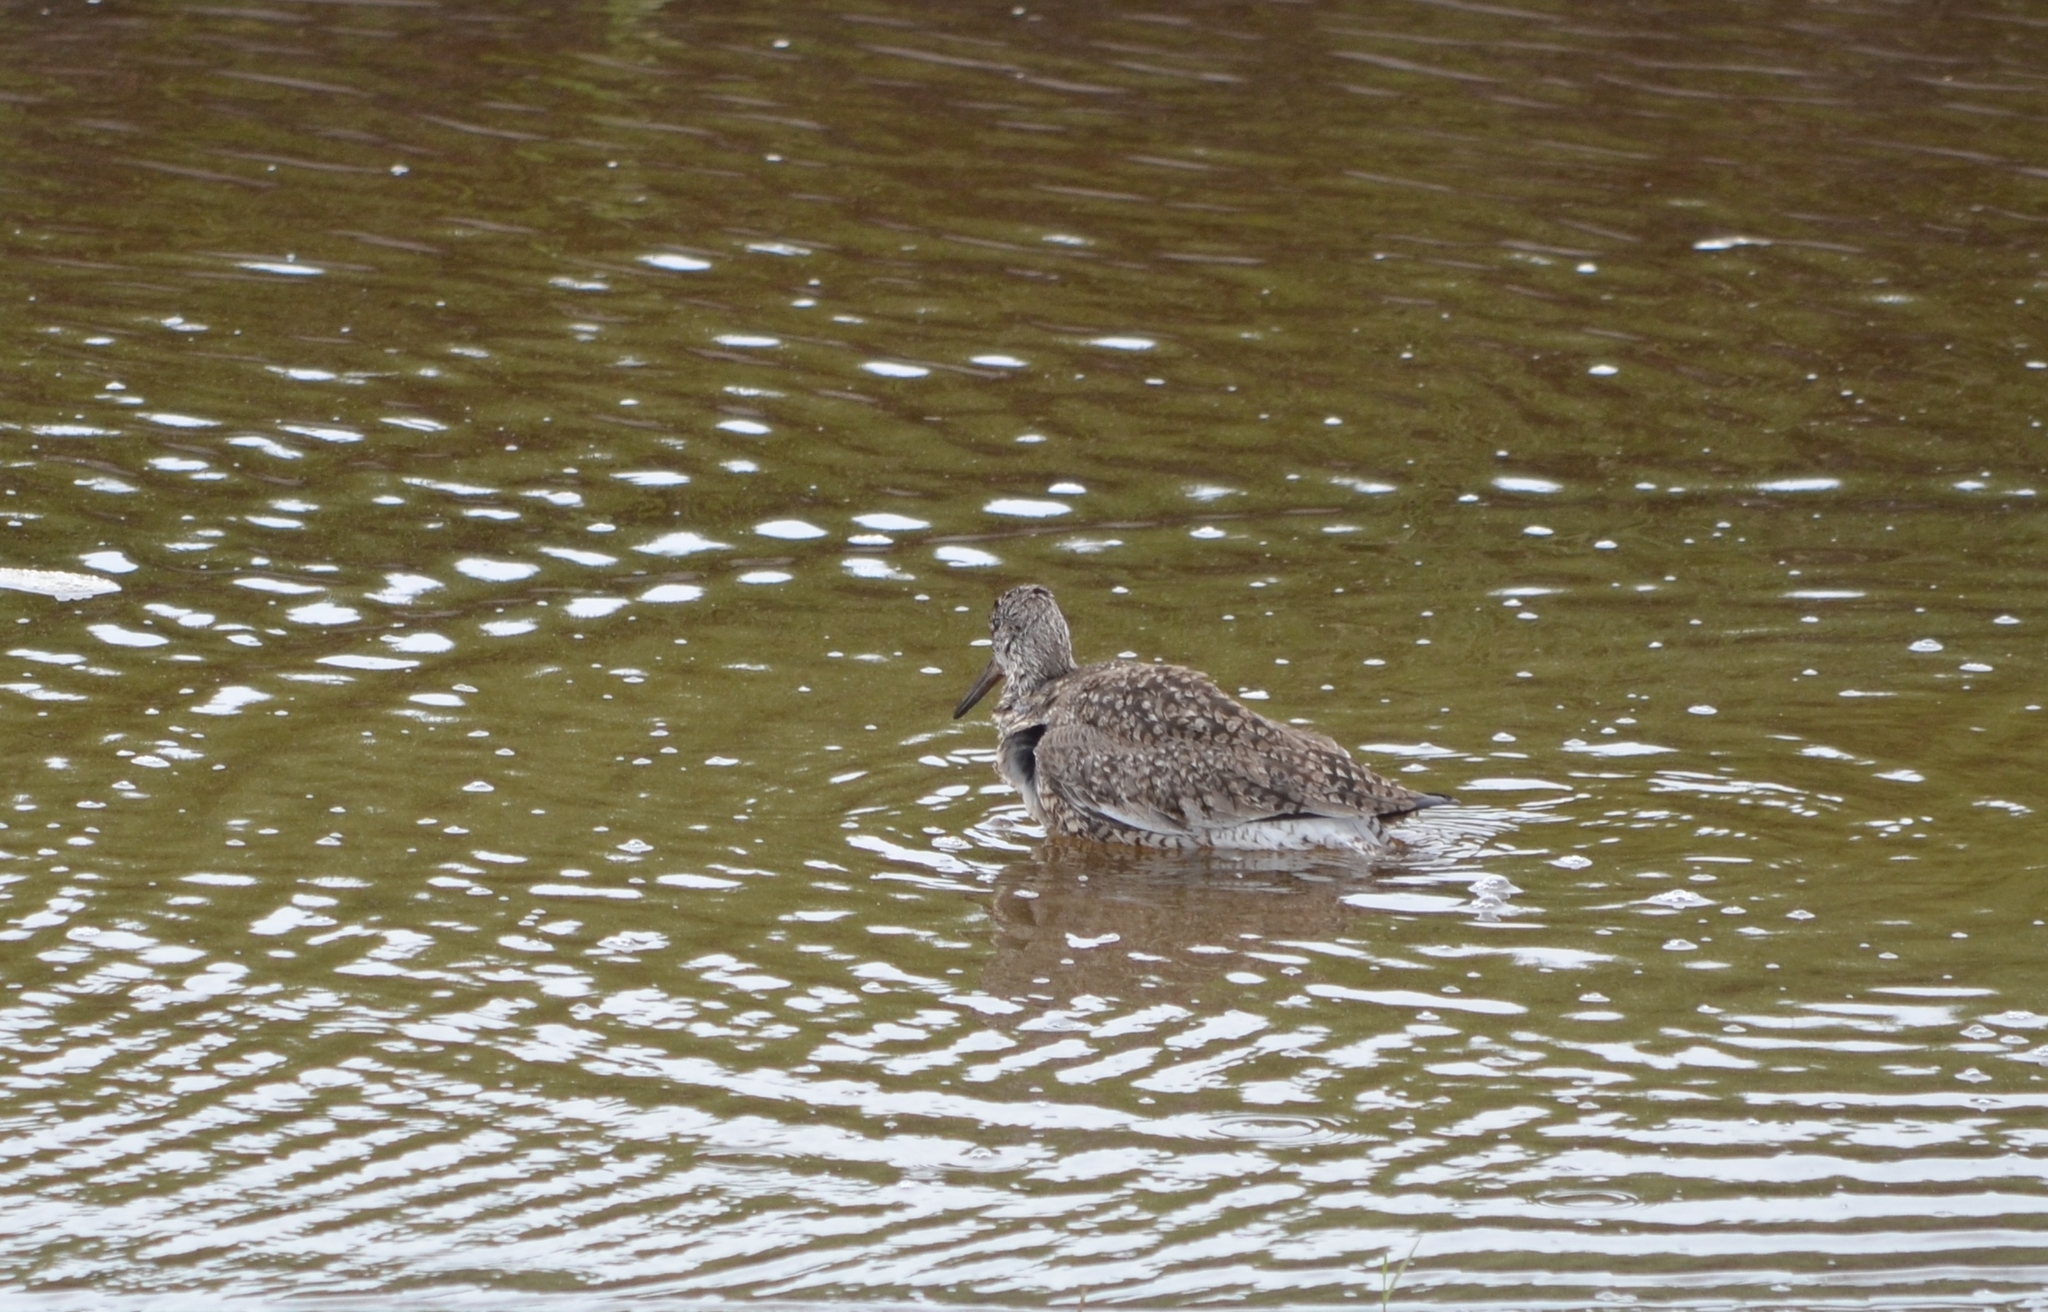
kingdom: Animalia
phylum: Chordata
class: Aves
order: Charadriiformes
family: Scolopacidae
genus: Tringa
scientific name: Tringa semipalmata
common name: Willet
